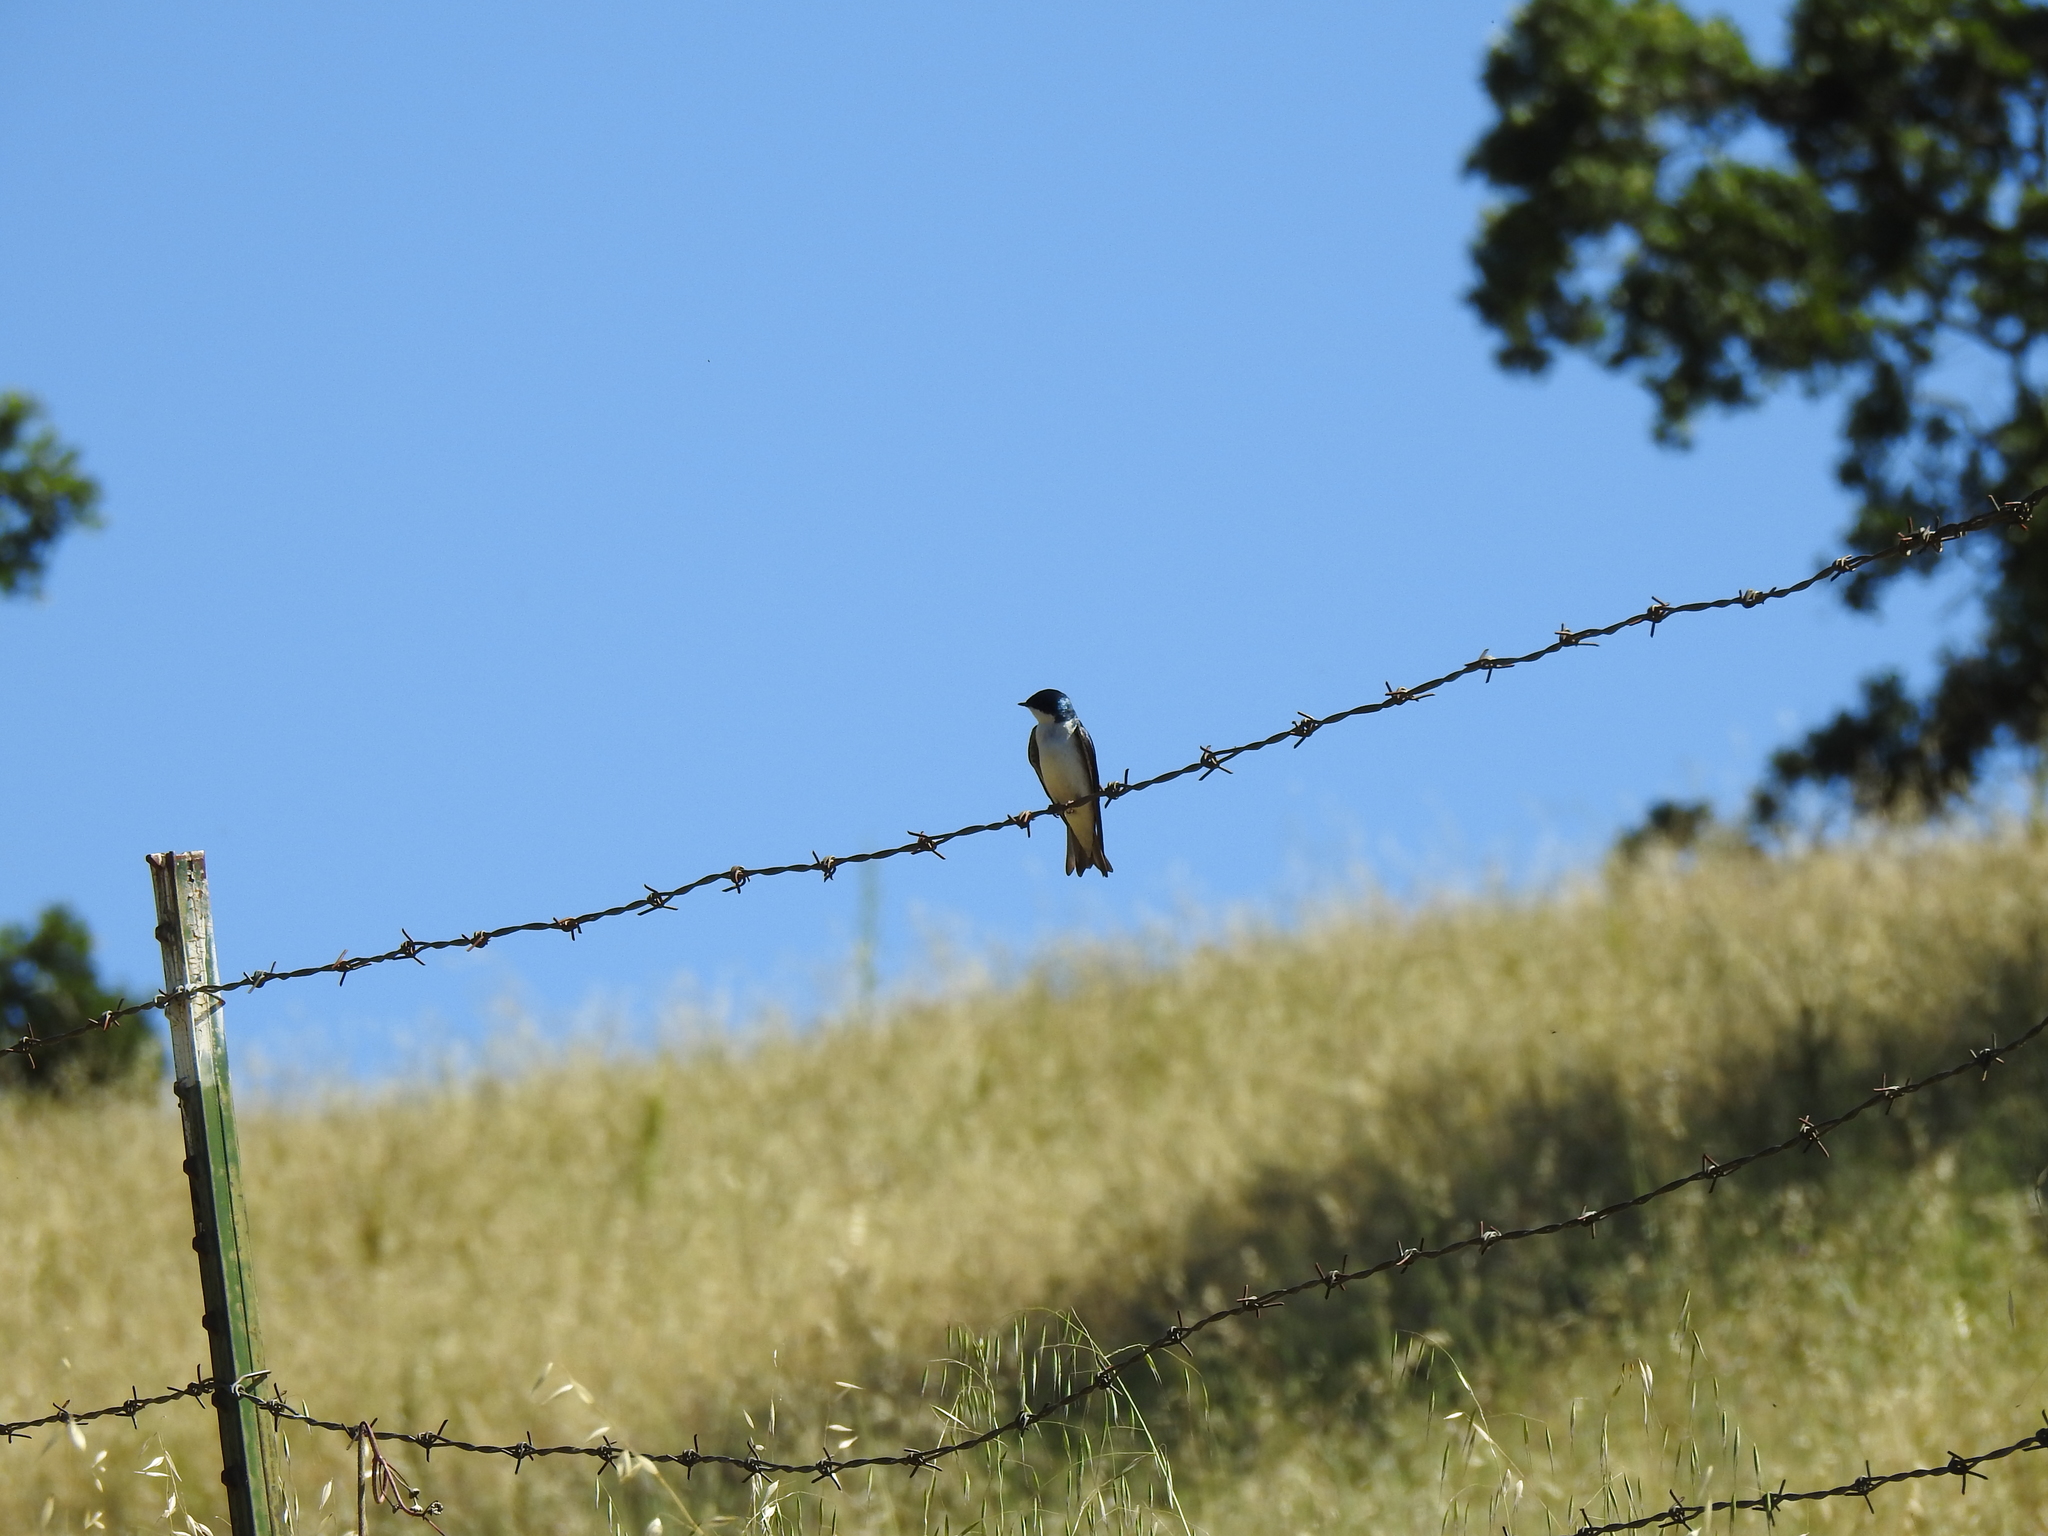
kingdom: Animalia
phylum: Chordata
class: Aves
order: Passeriformes
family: Hirundinidae
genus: Tachycineta
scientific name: Tachycineta bicolor
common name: Tree swallow
